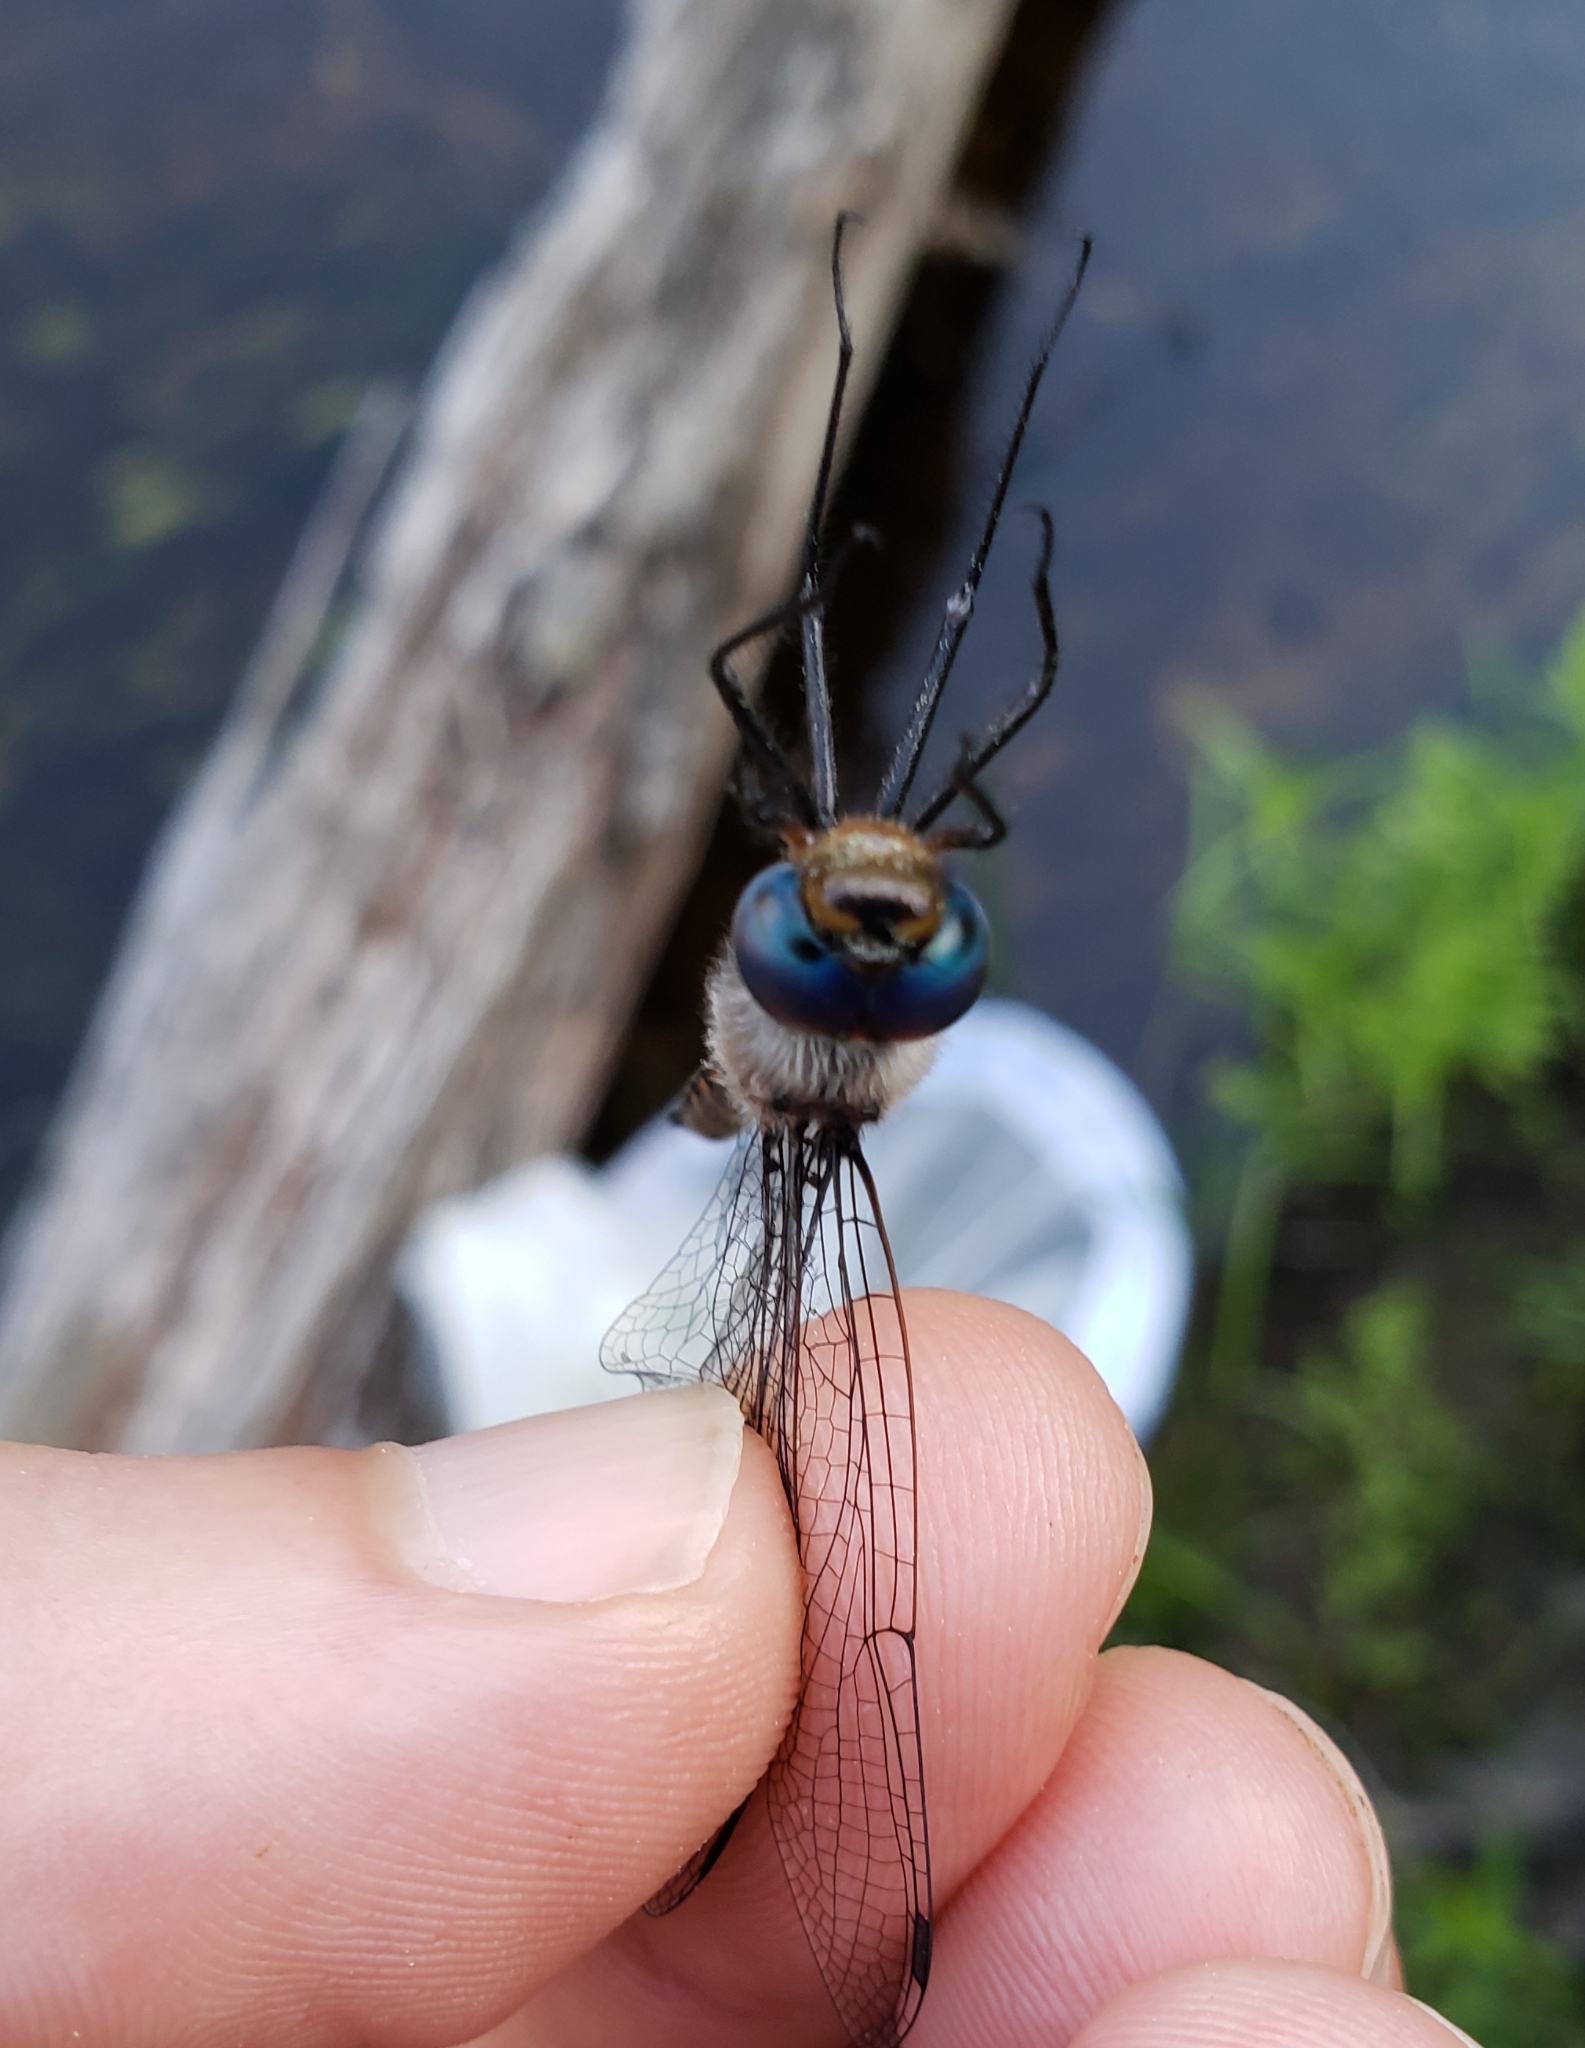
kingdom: Animalia
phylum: Arthropoda
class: Insecta
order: Odonata
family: Corduliidae
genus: Epitheca
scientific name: Epitheca spinigera
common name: Spiny baskettail
